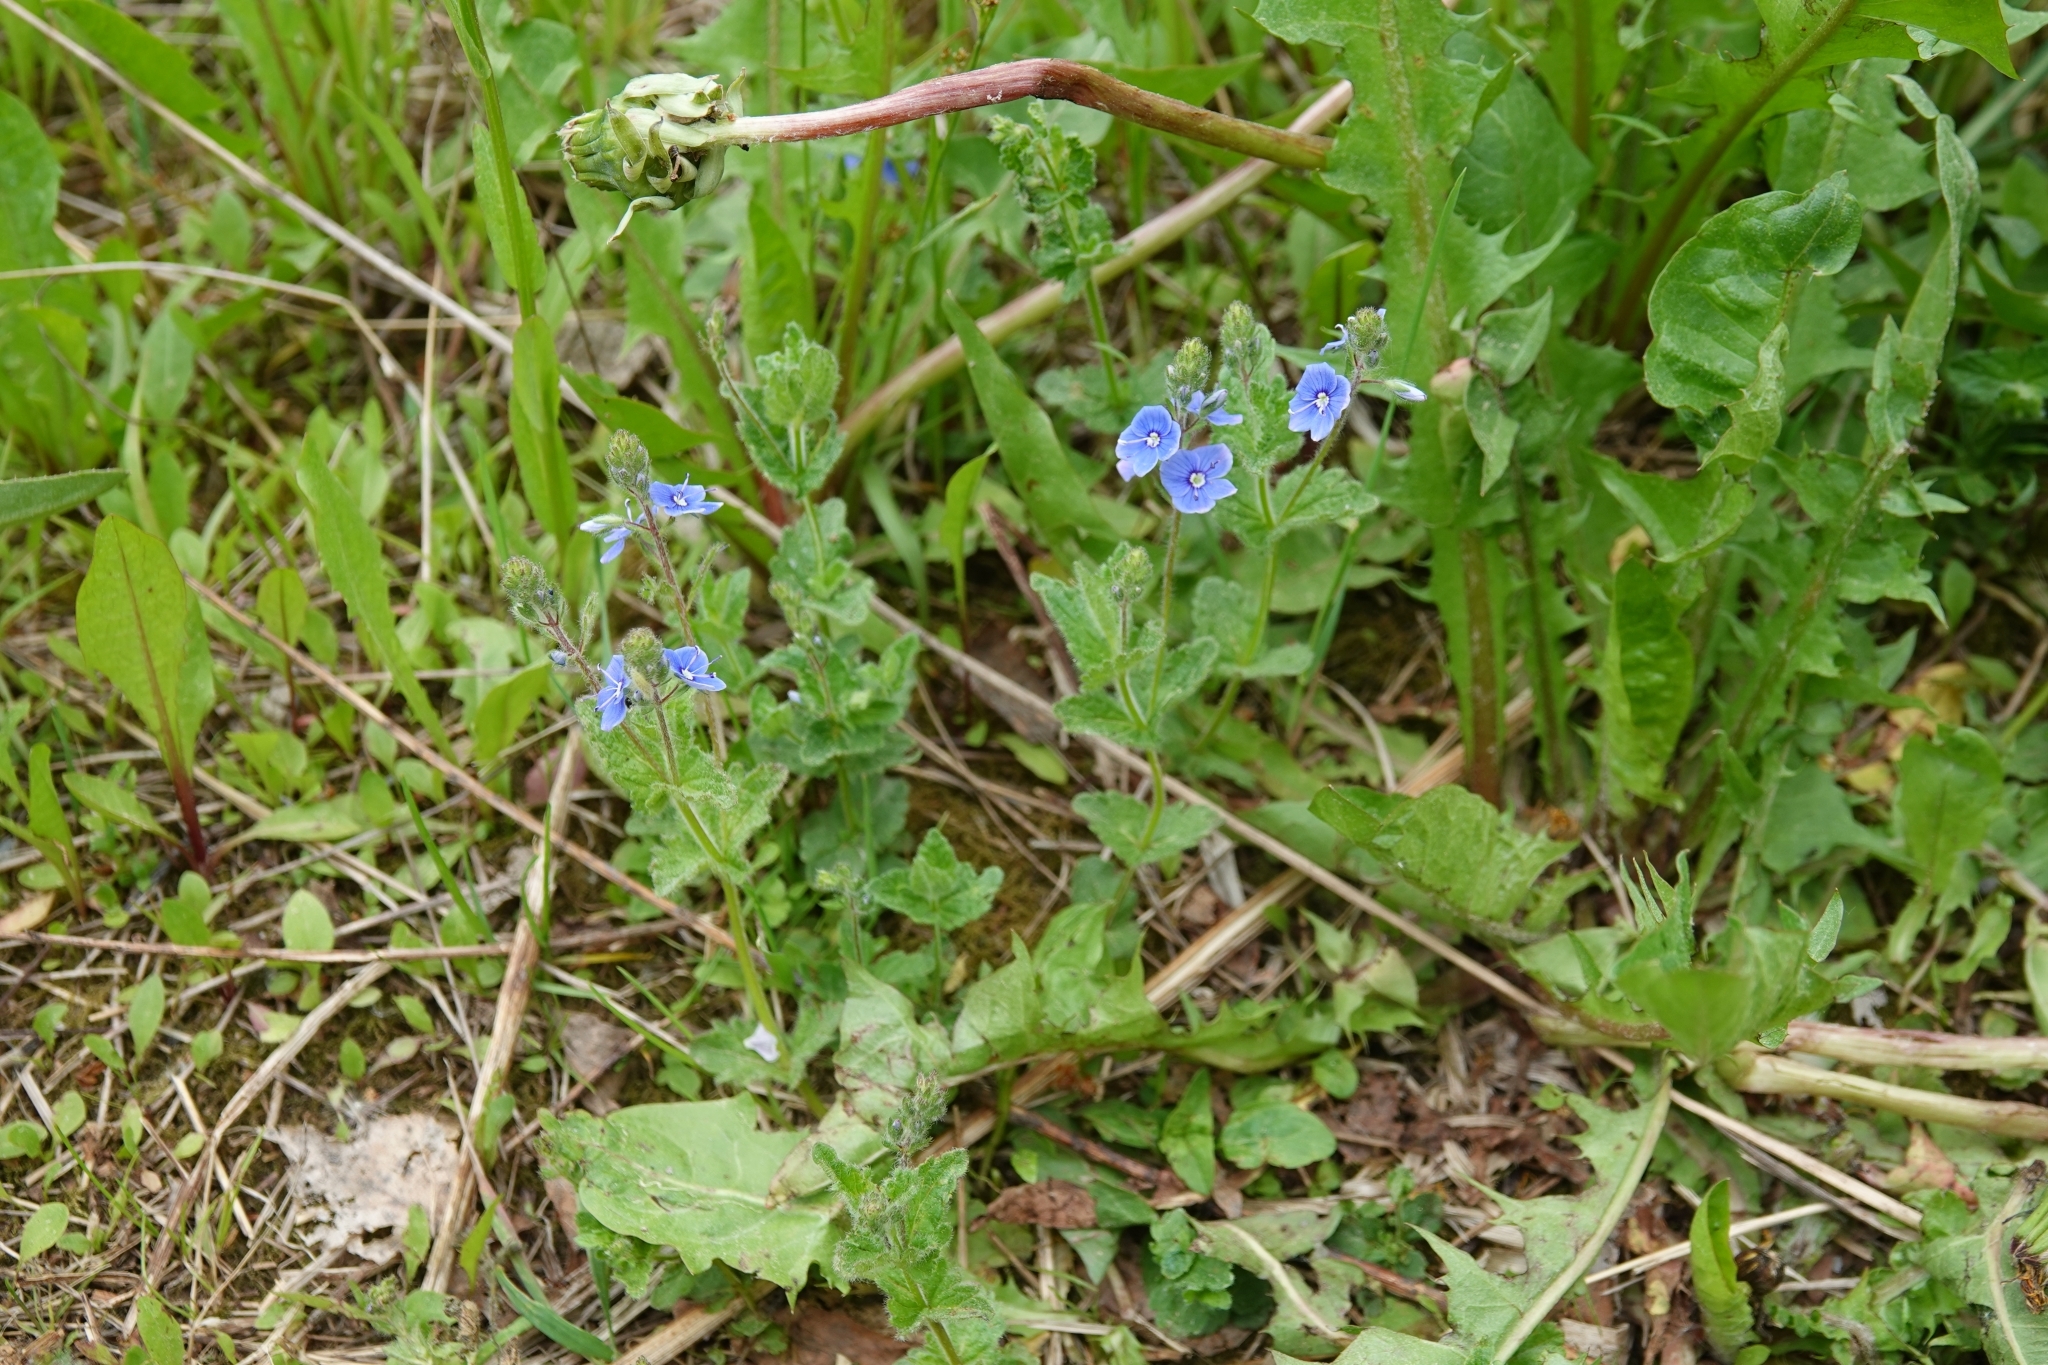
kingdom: Plantae
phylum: Tracheophyta
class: Magnoliopsida
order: Lamiales
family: Plantaginaceae
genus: Veronica
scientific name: Veronica chamaedrys
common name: Germander speedwell
